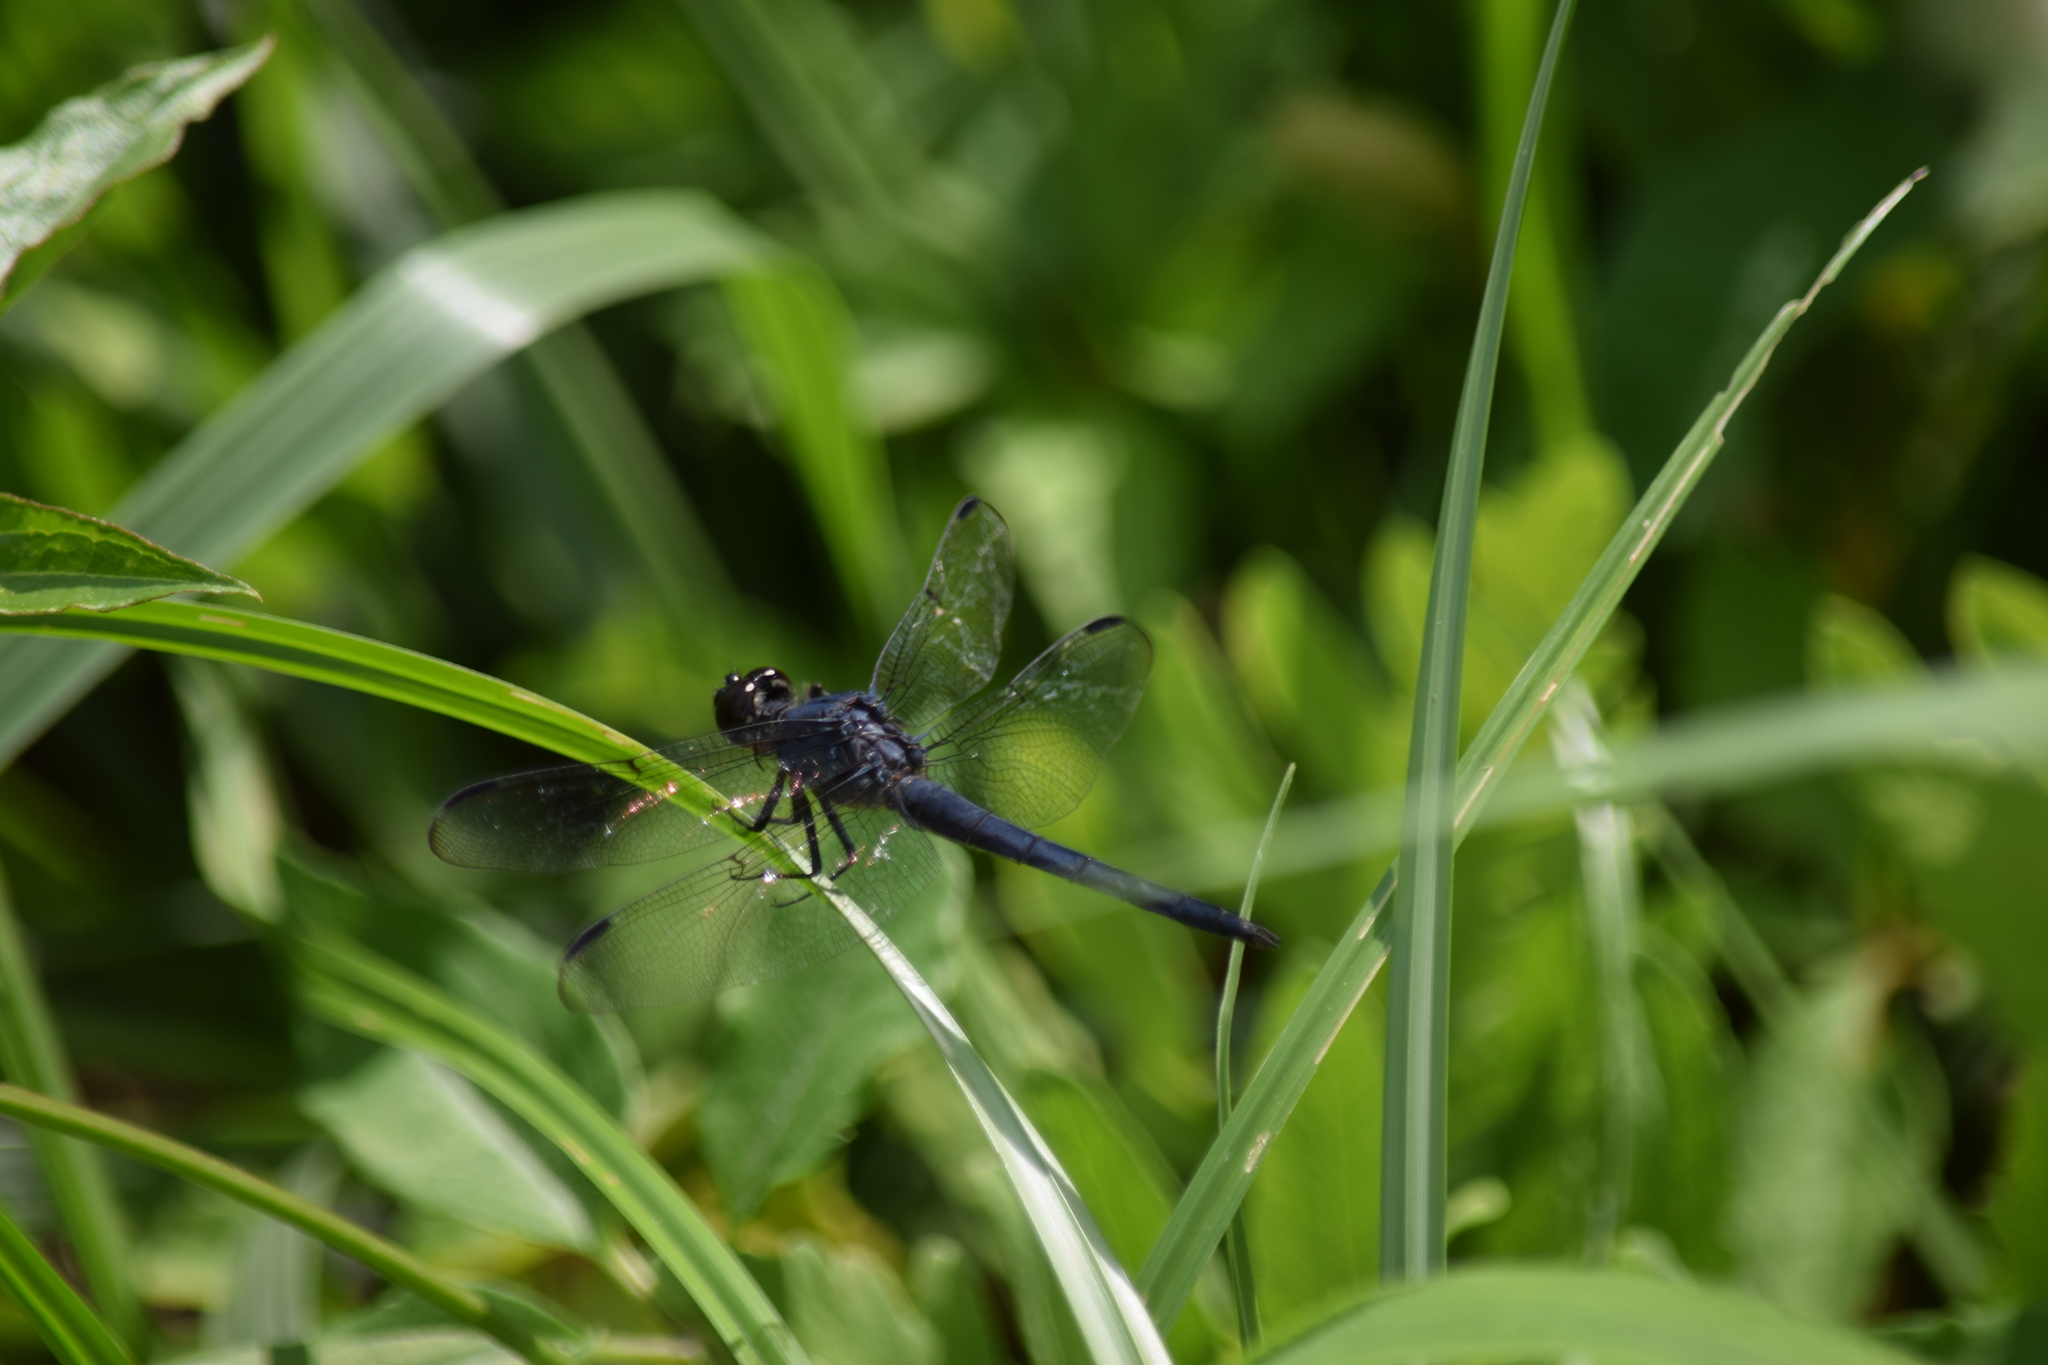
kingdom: Animalia
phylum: Arthropoda
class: Insecta
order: Odonata
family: Libellulidae
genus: Libellula
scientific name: Libellula incesta
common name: Slaty skimmer
